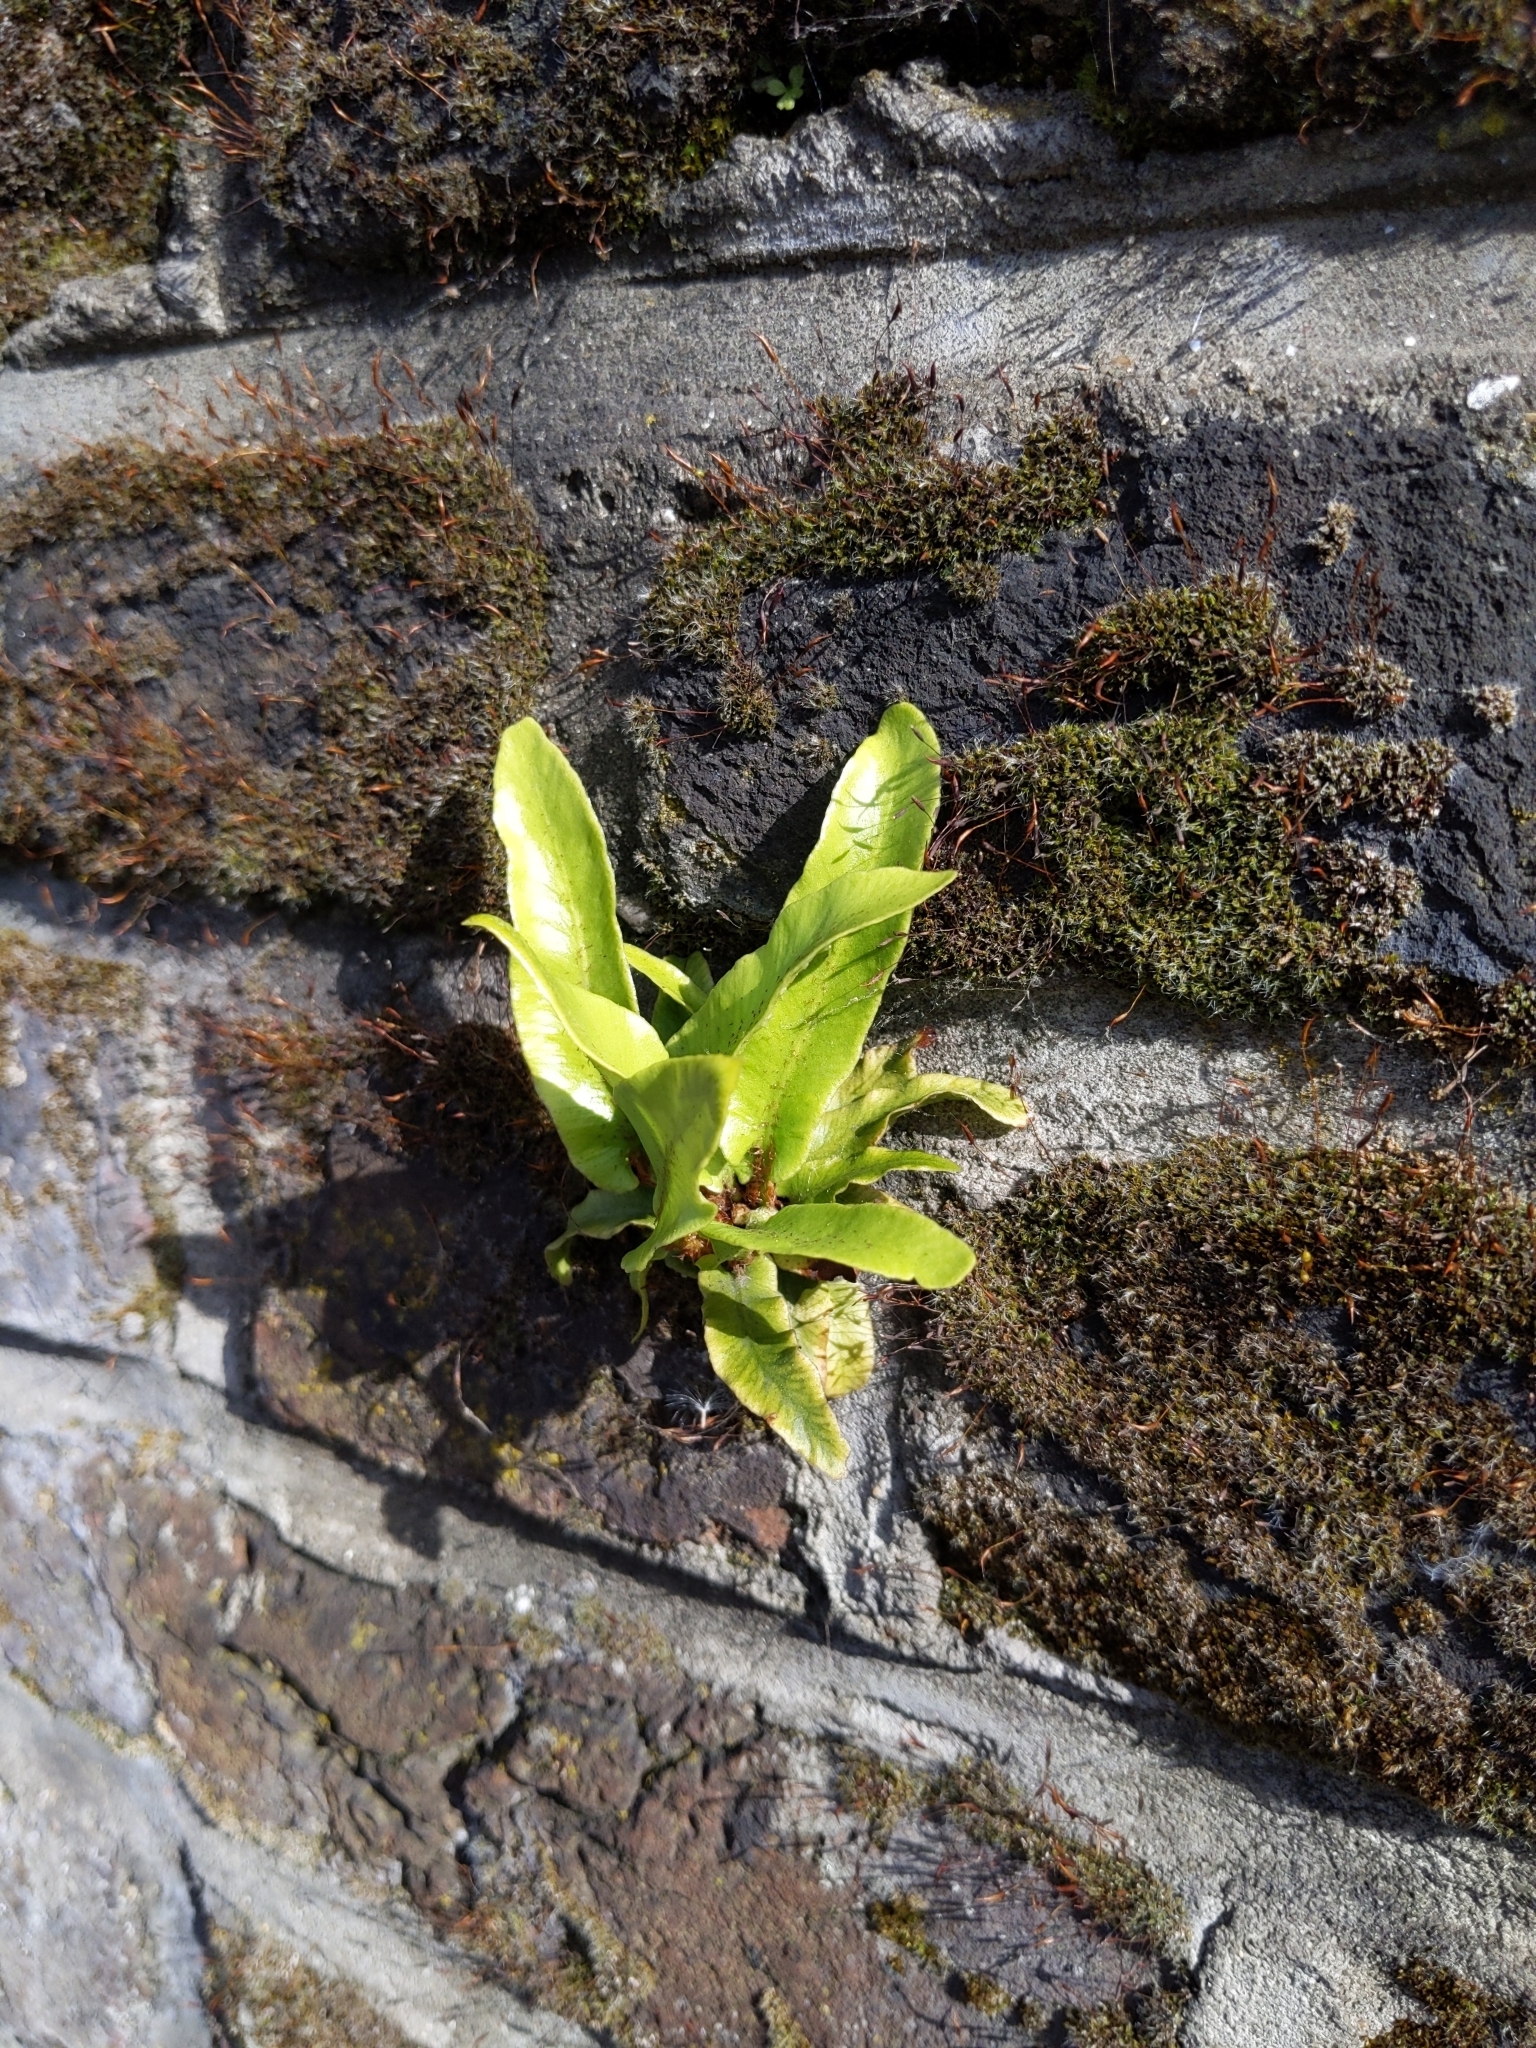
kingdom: Plantae
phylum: Tracheophyta
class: Polypodiopsida
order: Polypodiales
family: Aspleniaceae
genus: Asplenium
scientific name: Asplenium scolopendrium
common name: Hart's-tongue fern
